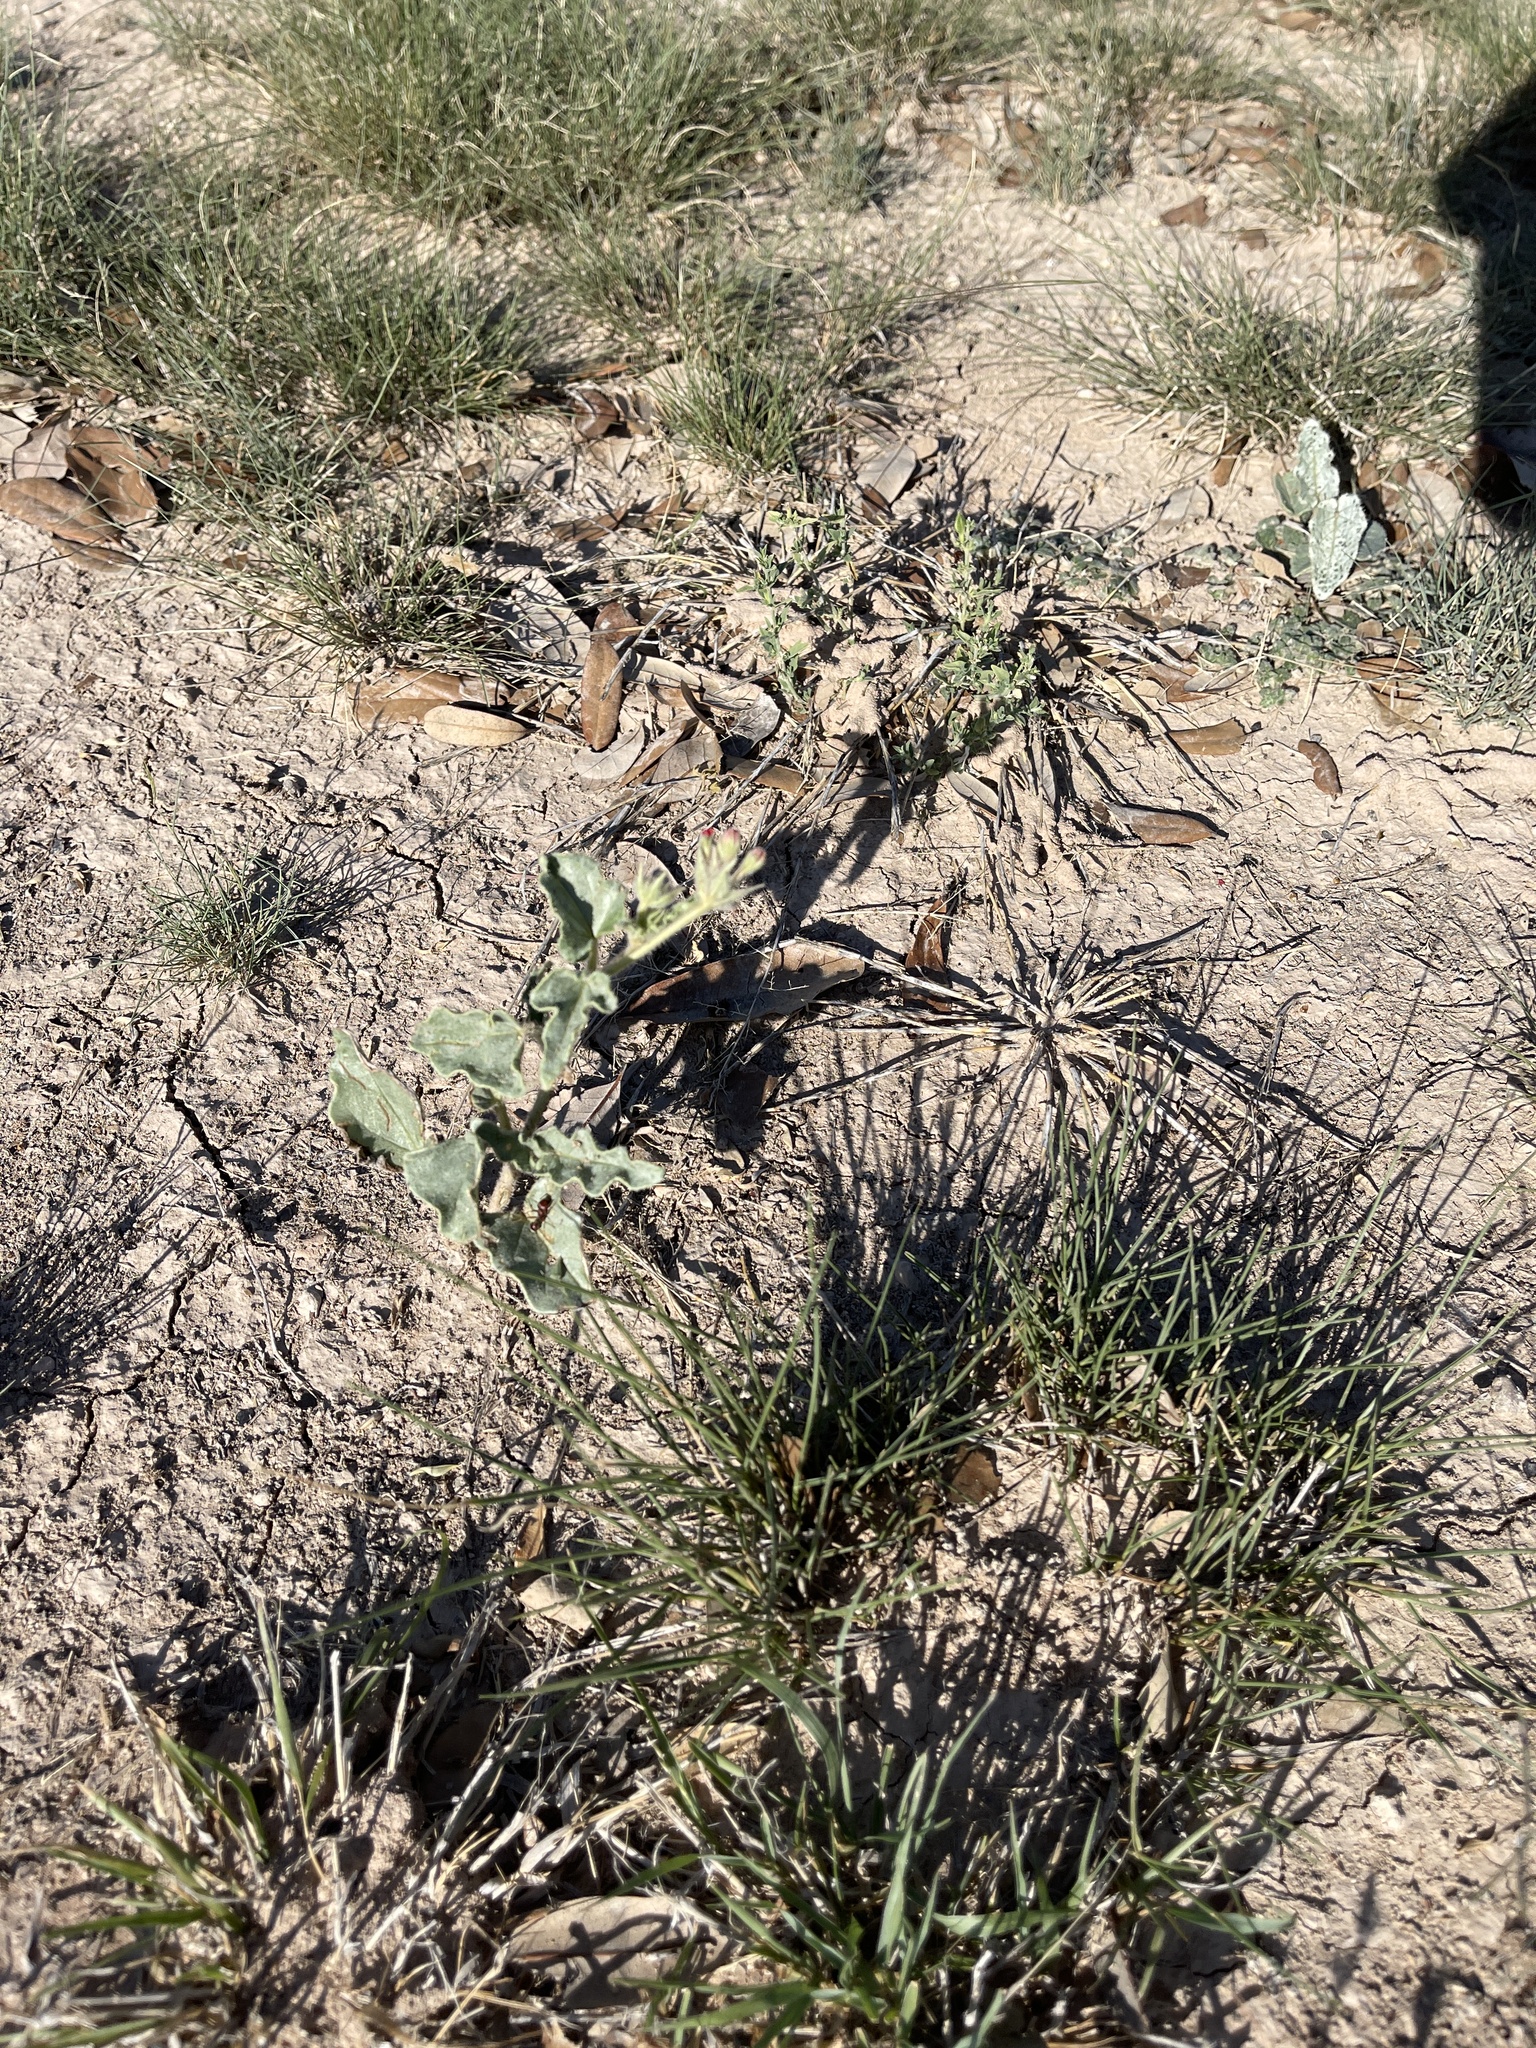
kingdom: Plantae
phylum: Tracheophyta
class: Magnoliopsida
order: Caryophyllales
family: Nyctaginaceae
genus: Nyctaginia
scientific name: Nyctaginia capitata
